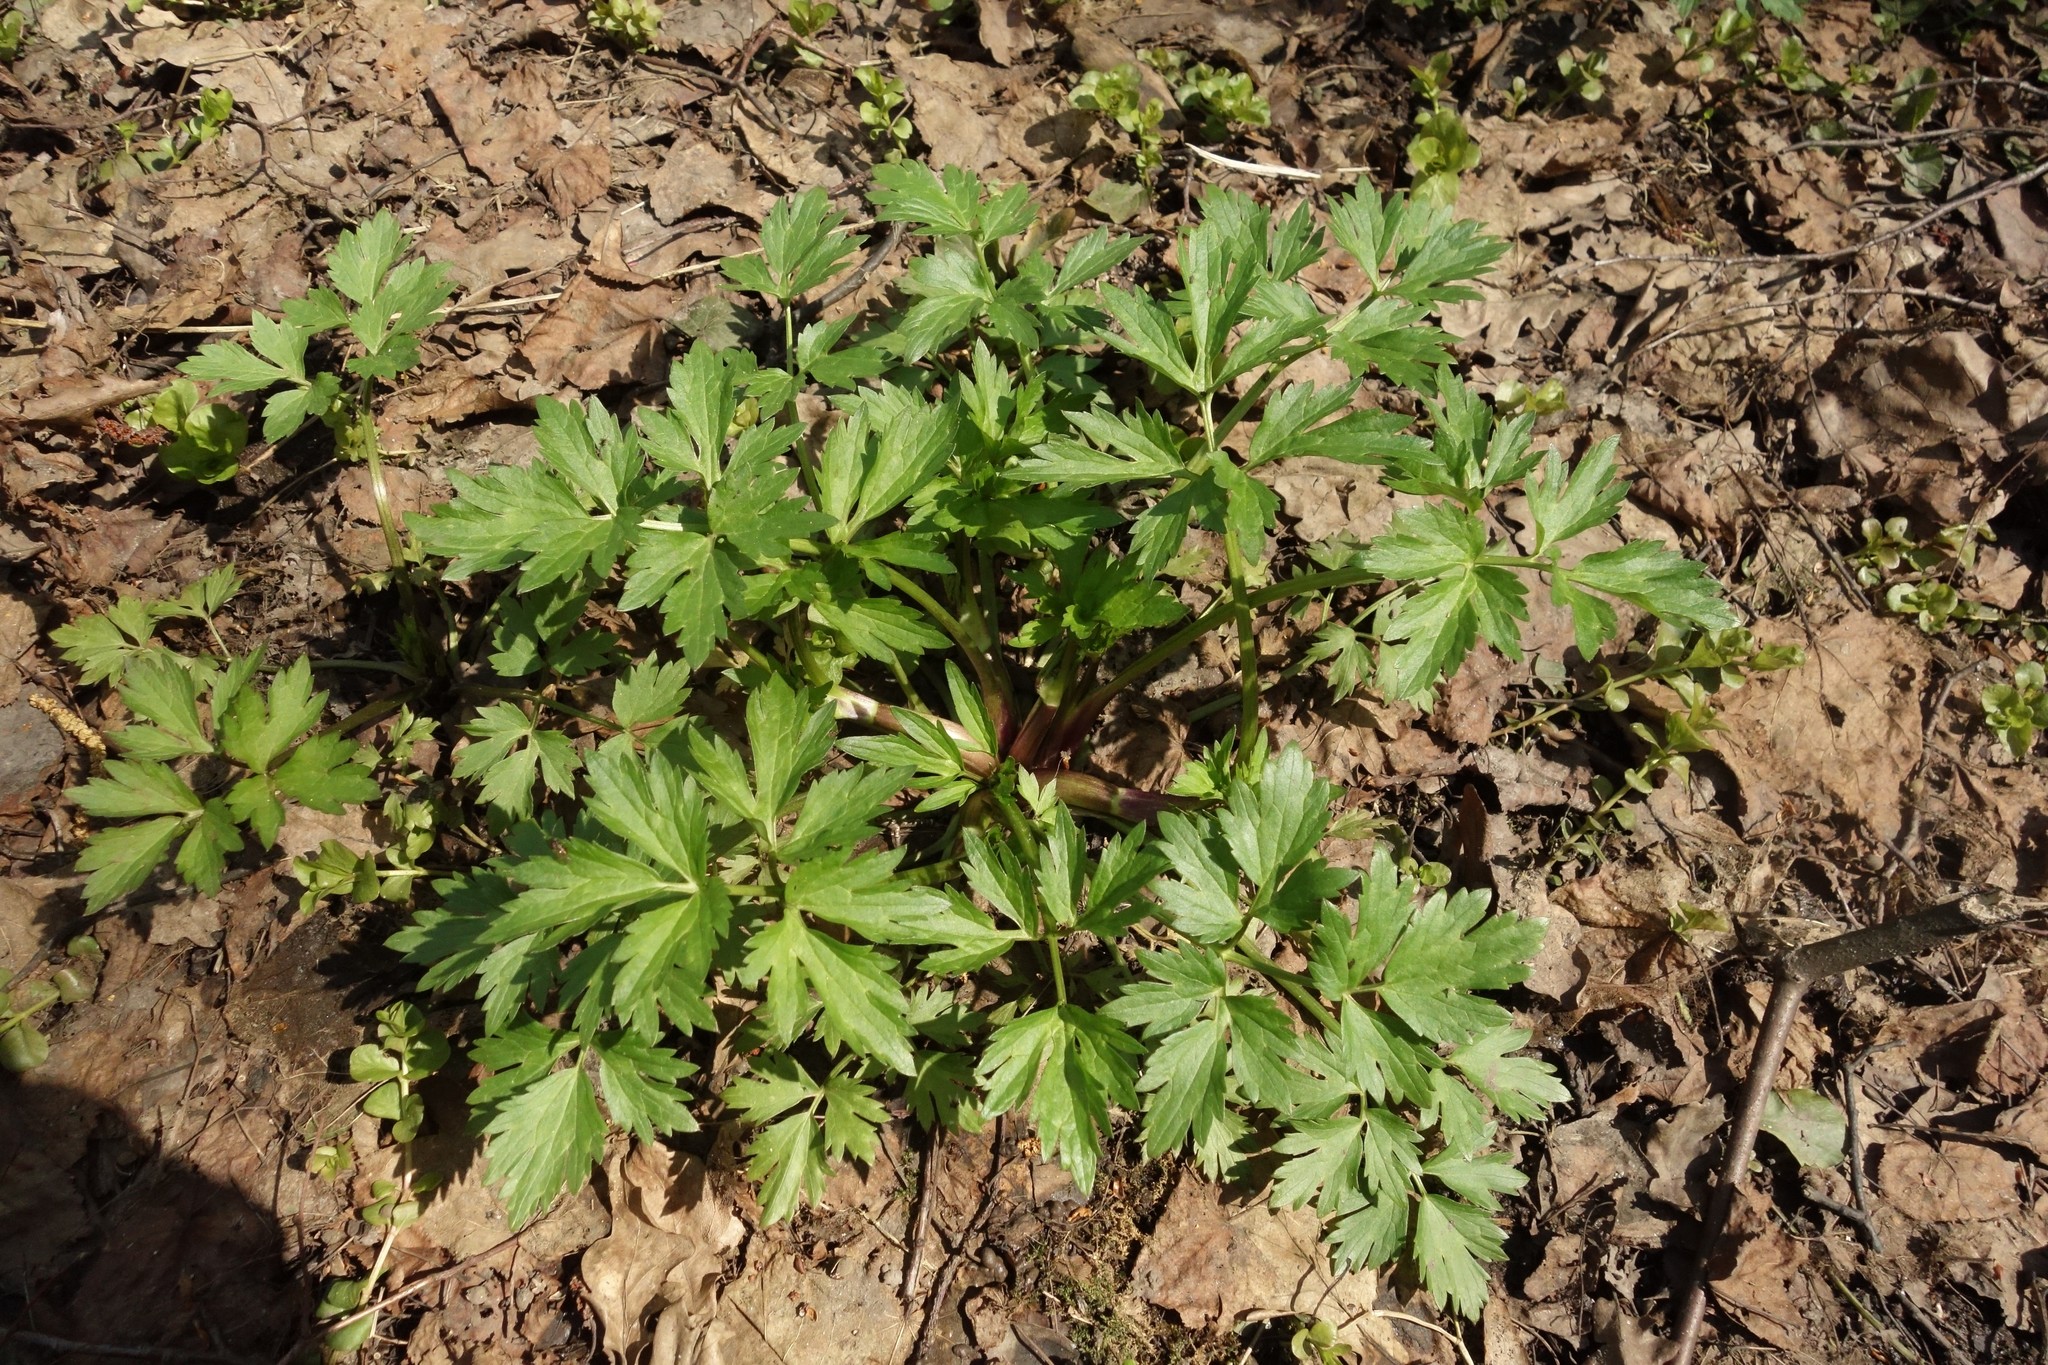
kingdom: Plantae
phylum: Tracheophyta
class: Magnoliopsida
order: Ranunculales
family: Ranunculaceae
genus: Ranunculus
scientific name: Ranunculus repens
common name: Creeping buttercup
